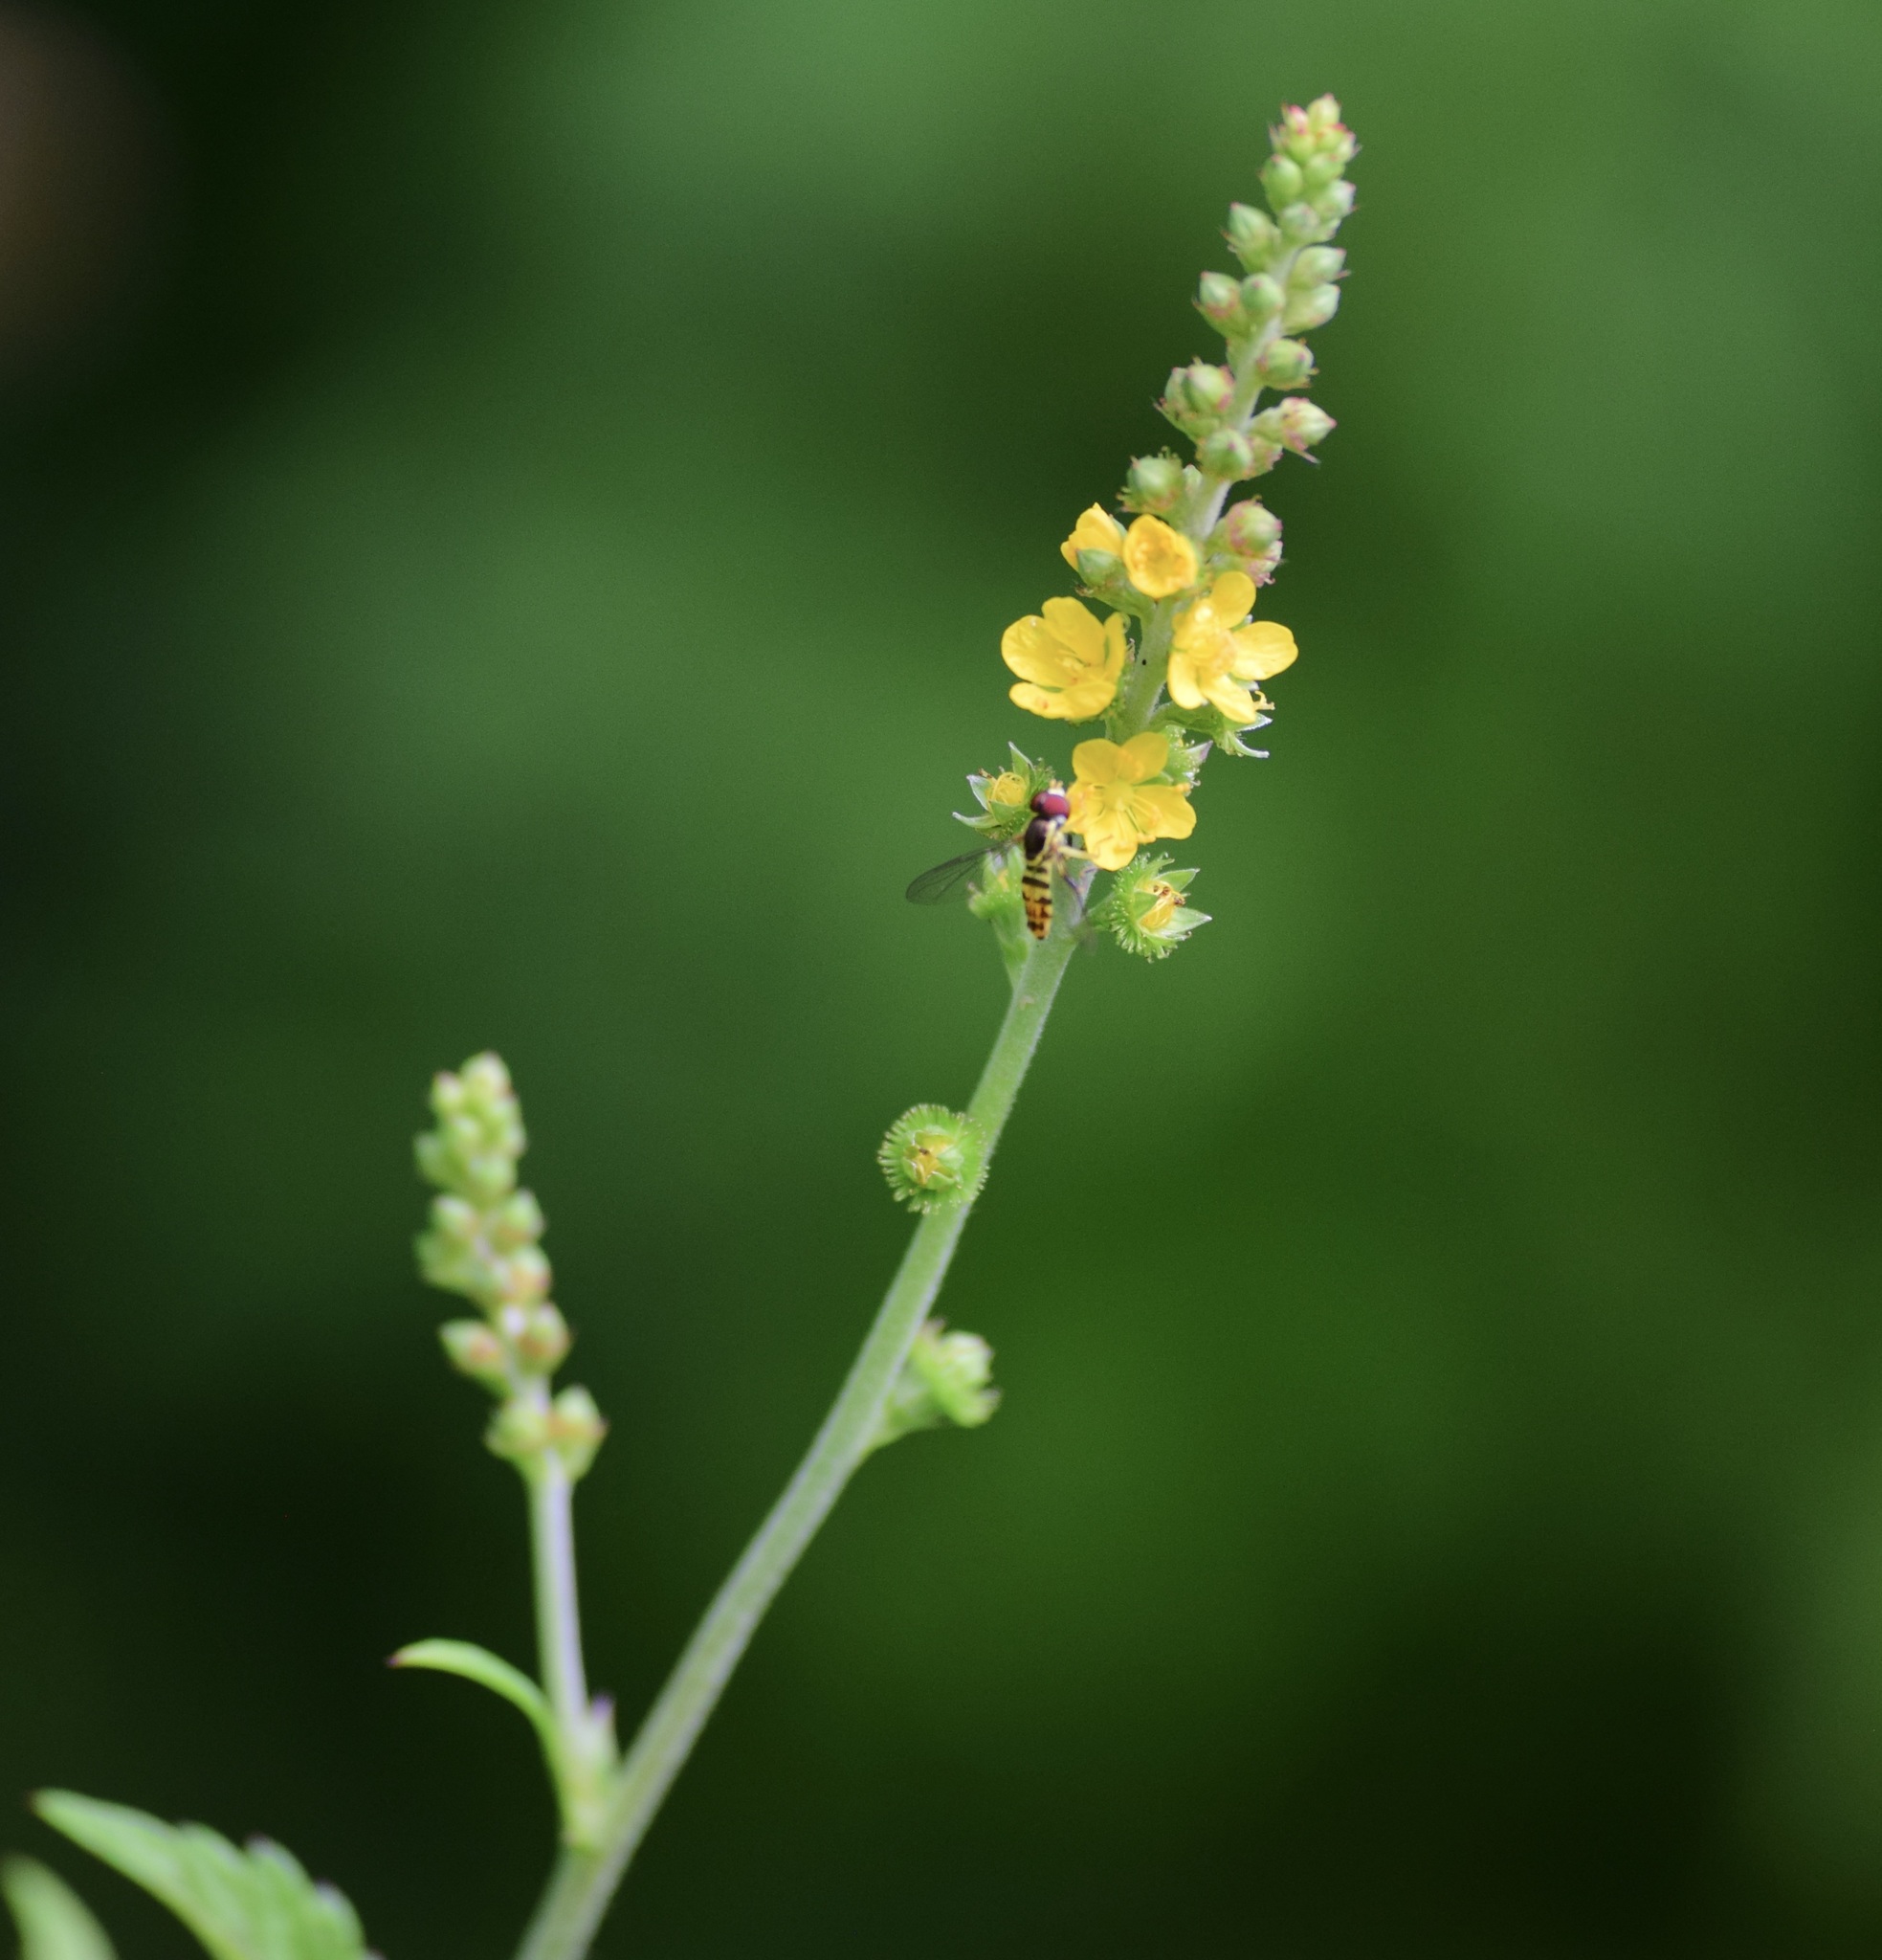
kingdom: Animalia
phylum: Arthropoda
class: Insecta
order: Diptera
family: Syrphidae
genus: Toxomerus
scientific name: Toxomerus geminatus
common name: Eastern calligrapher
